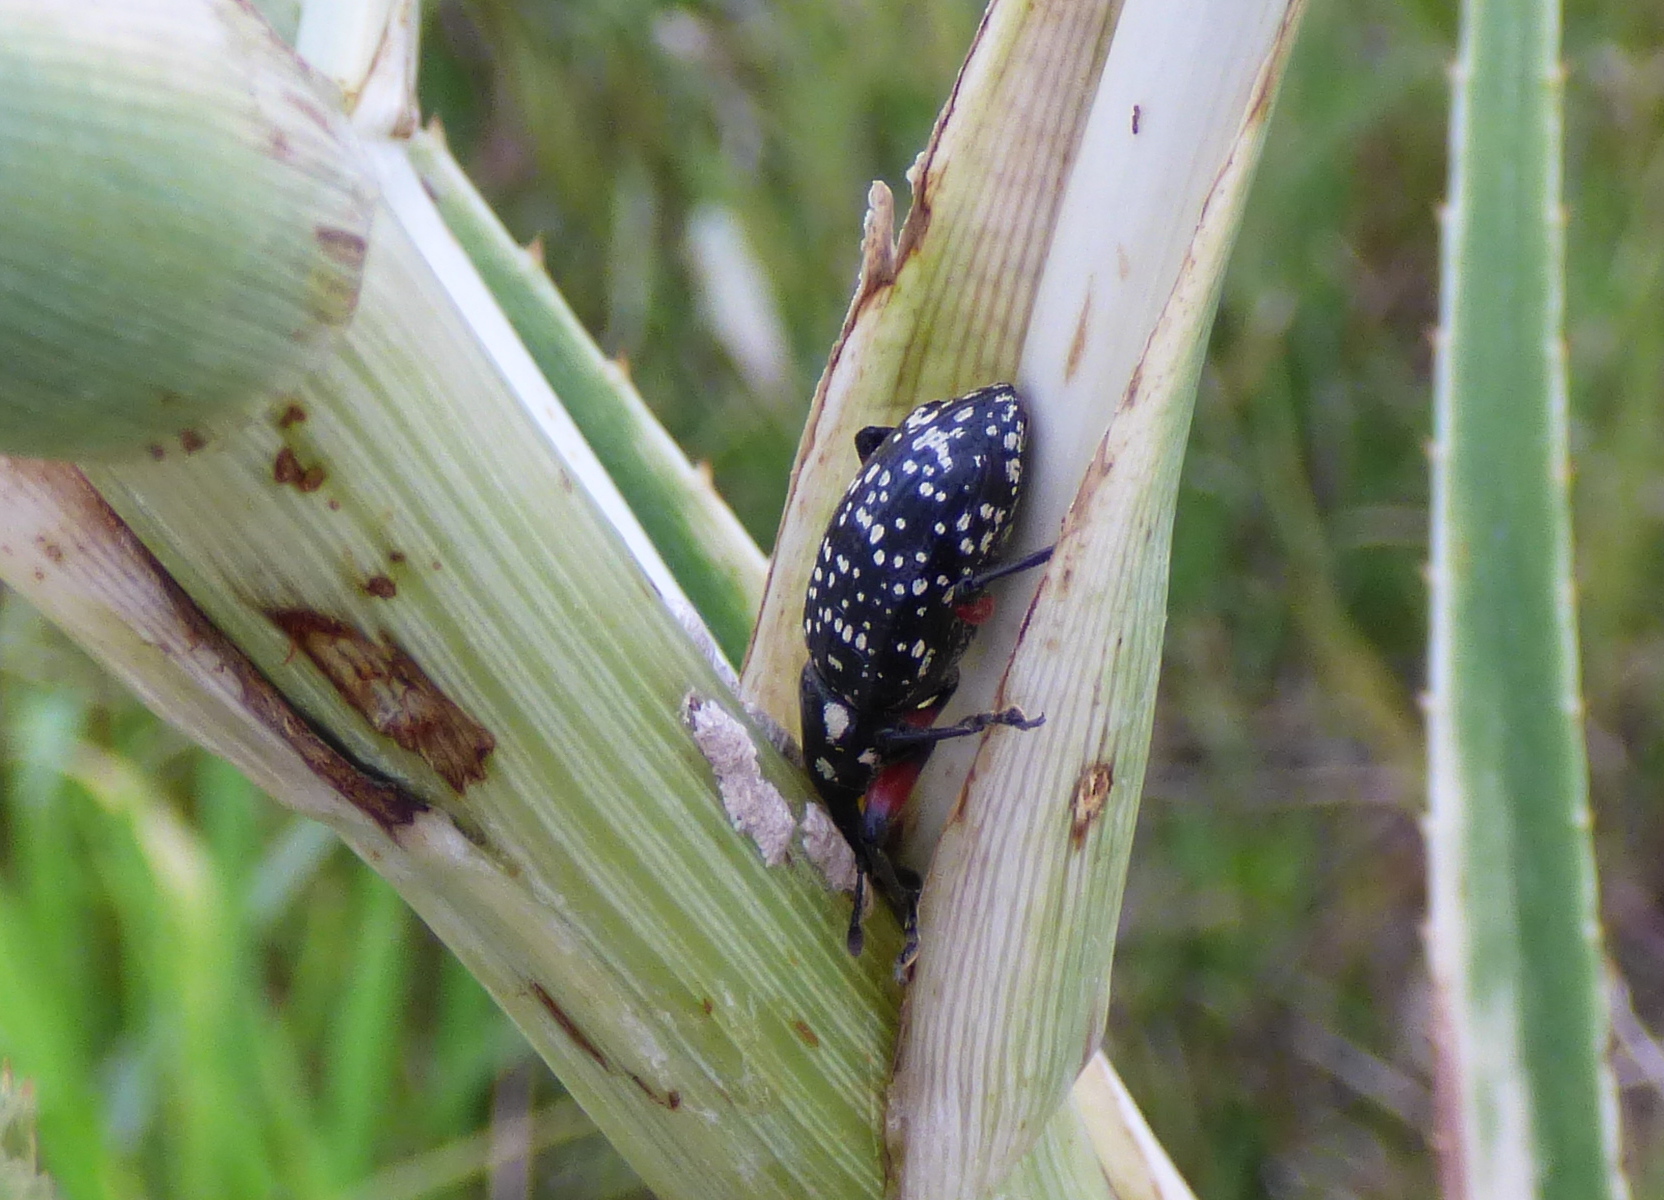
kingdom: Animalia
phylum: Arthropoda
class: Insecta
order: Coleoptera
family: Curculionidae
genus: Heilipodus
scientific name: Heilipodus erythropus
